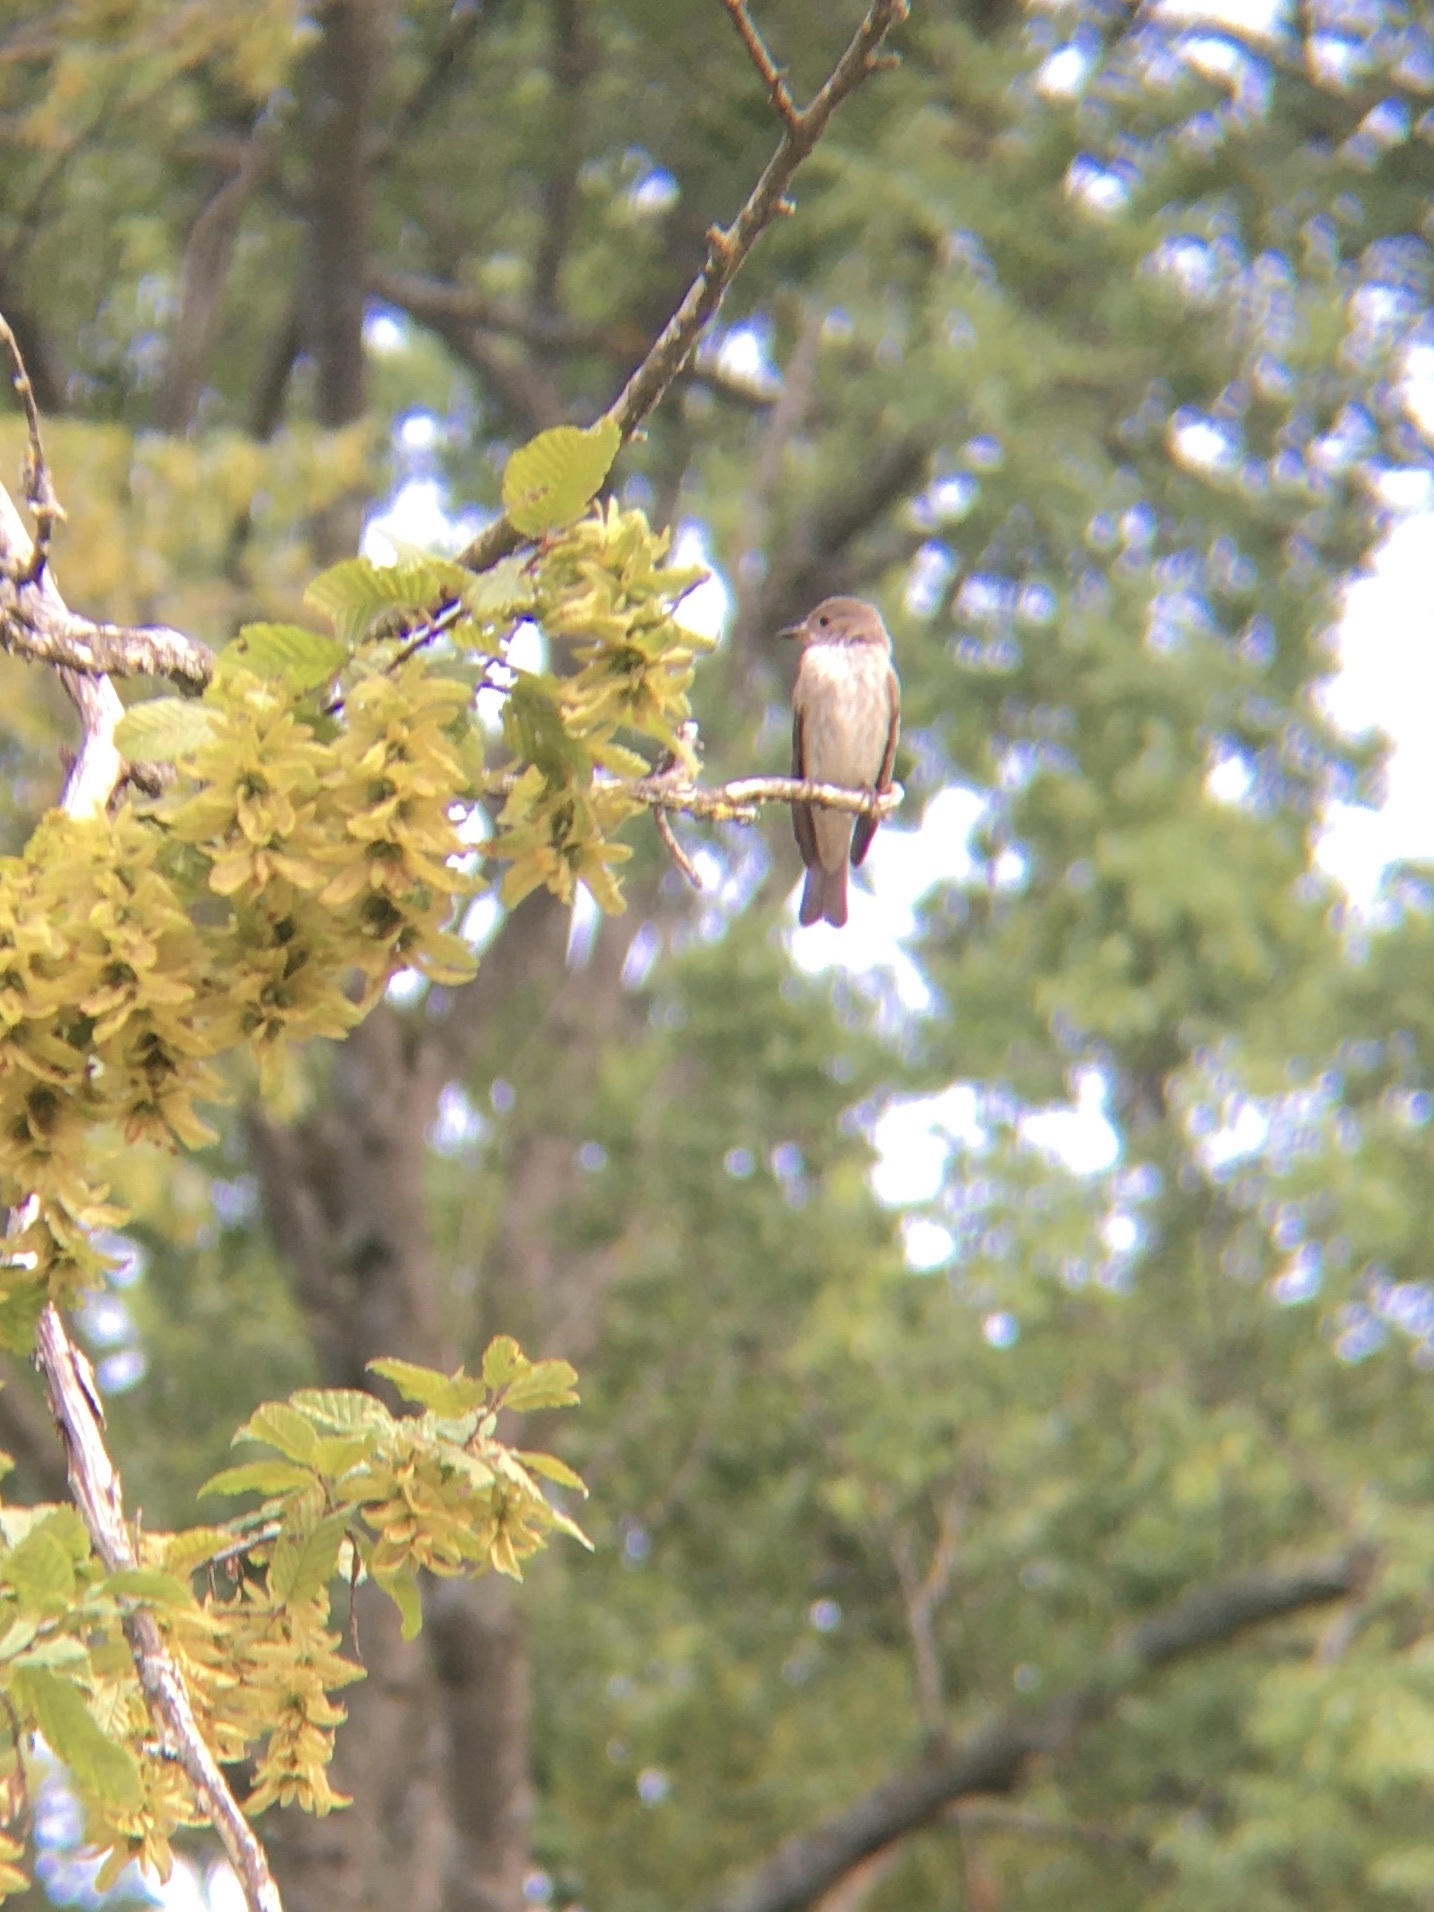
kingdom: Animalia
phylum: Chordata
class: Aves
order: Passeriformes
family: Muscicapidae
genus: Muscicapa
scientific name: Muscicapa striata
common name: Spotted flycatcher
